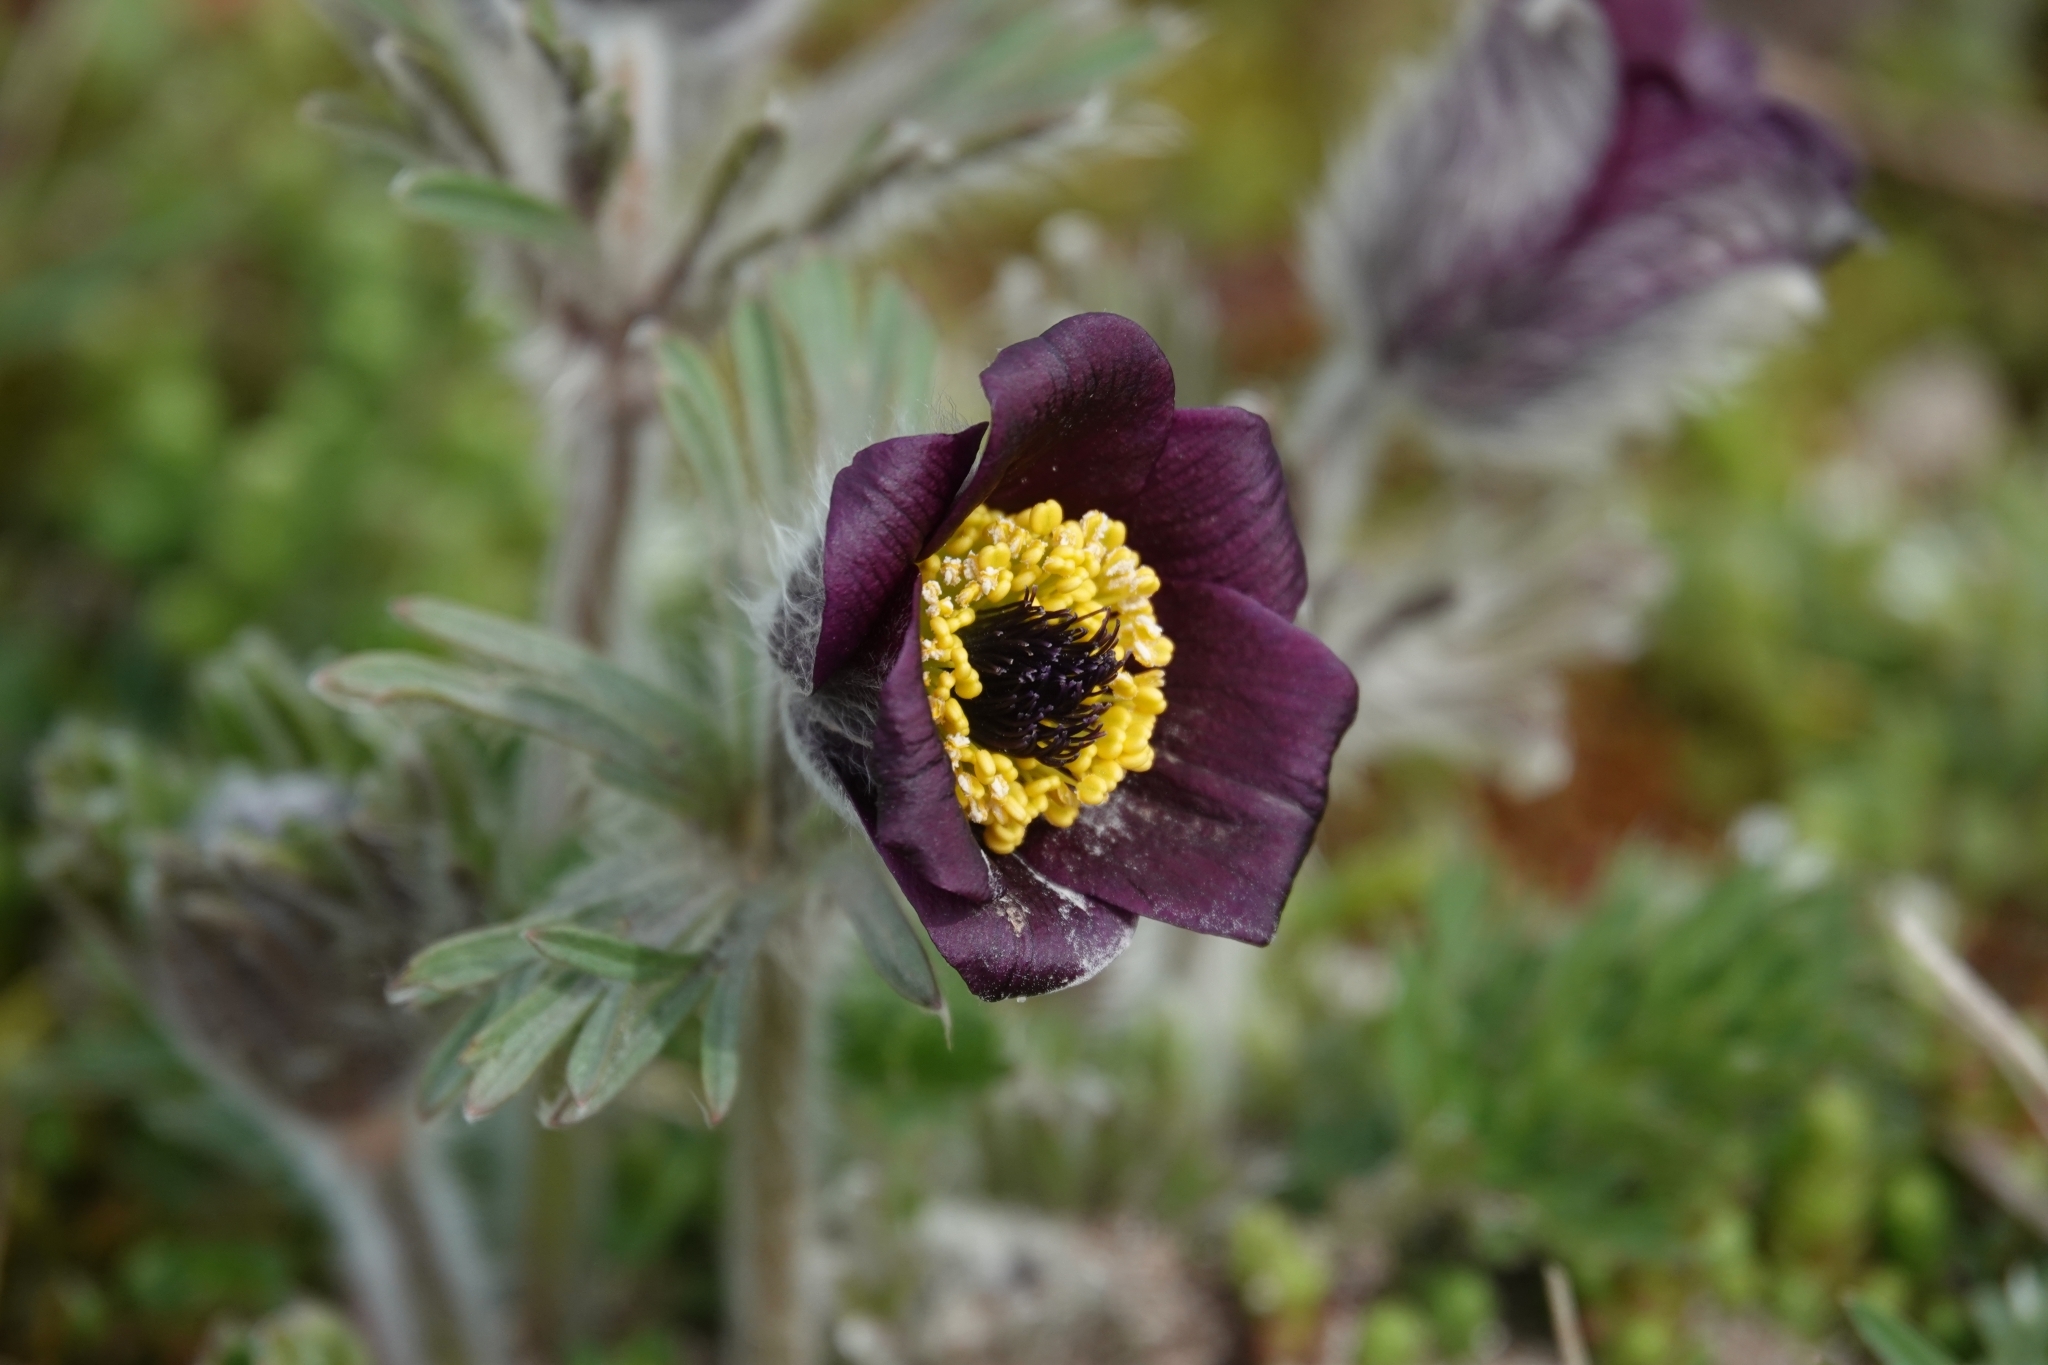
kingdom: Plantae
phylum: Tracheophyta
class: Magnoliopsida
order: Ranunculales
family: Ranunculaceae
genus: Pulsatilla
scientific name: Pulsatilla pratensis
